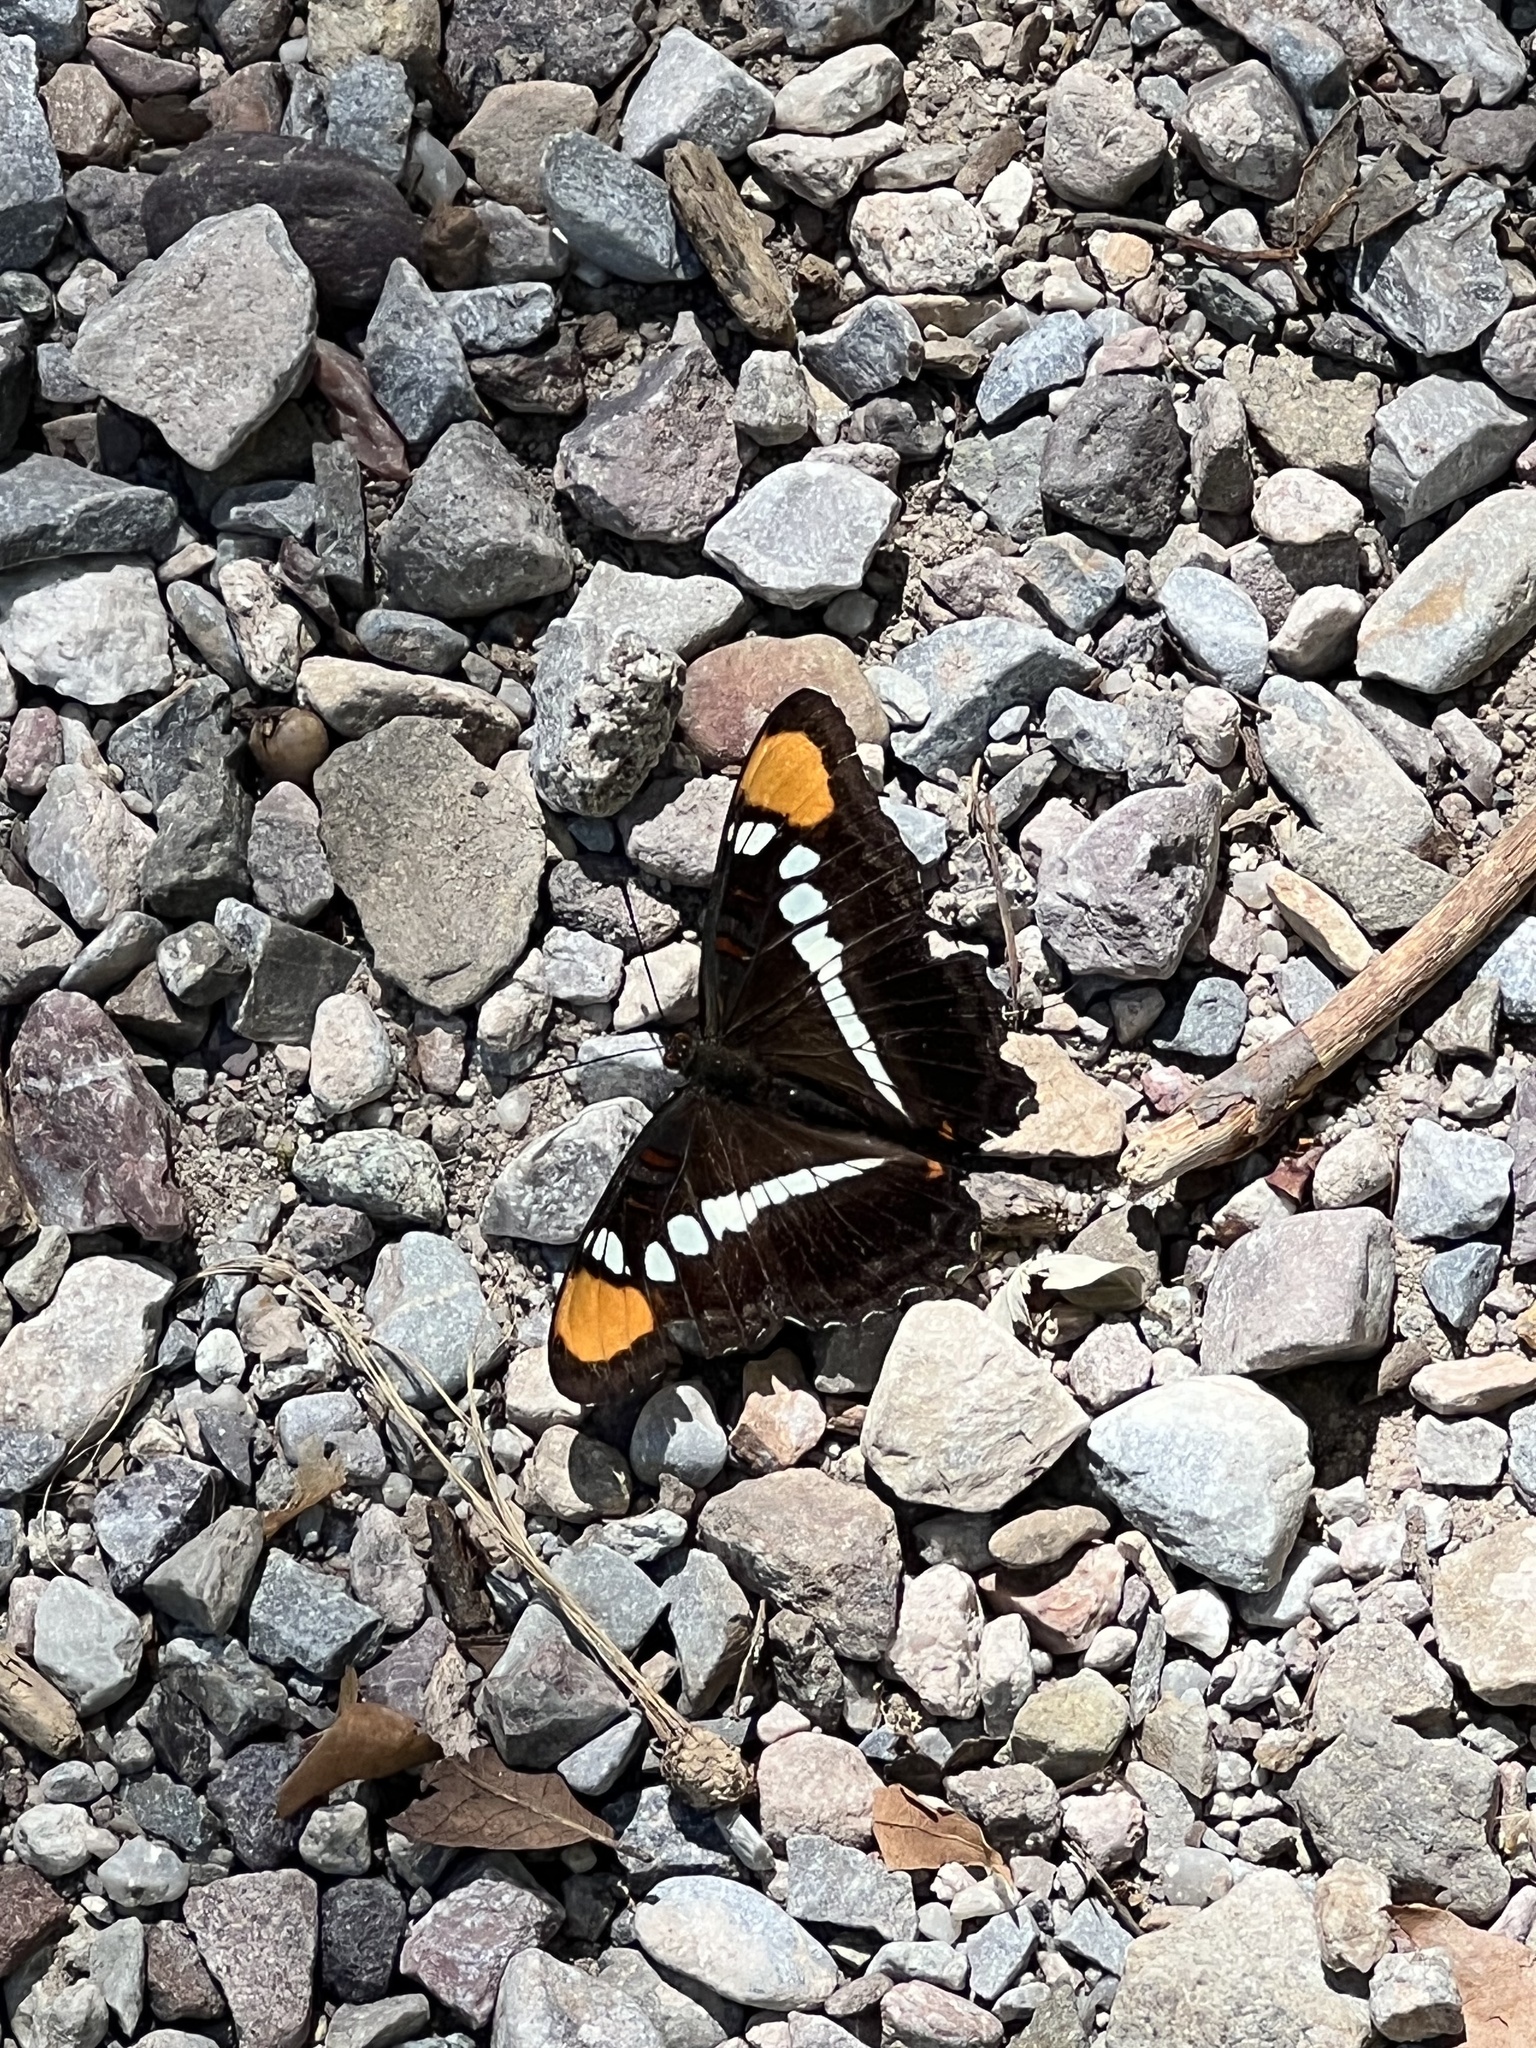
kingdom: Animalia
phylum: Arthropoda
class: Insecta
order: Lepidoptera
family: Nymphalidae
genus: Limenitis
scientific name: Limenitis bredowii
